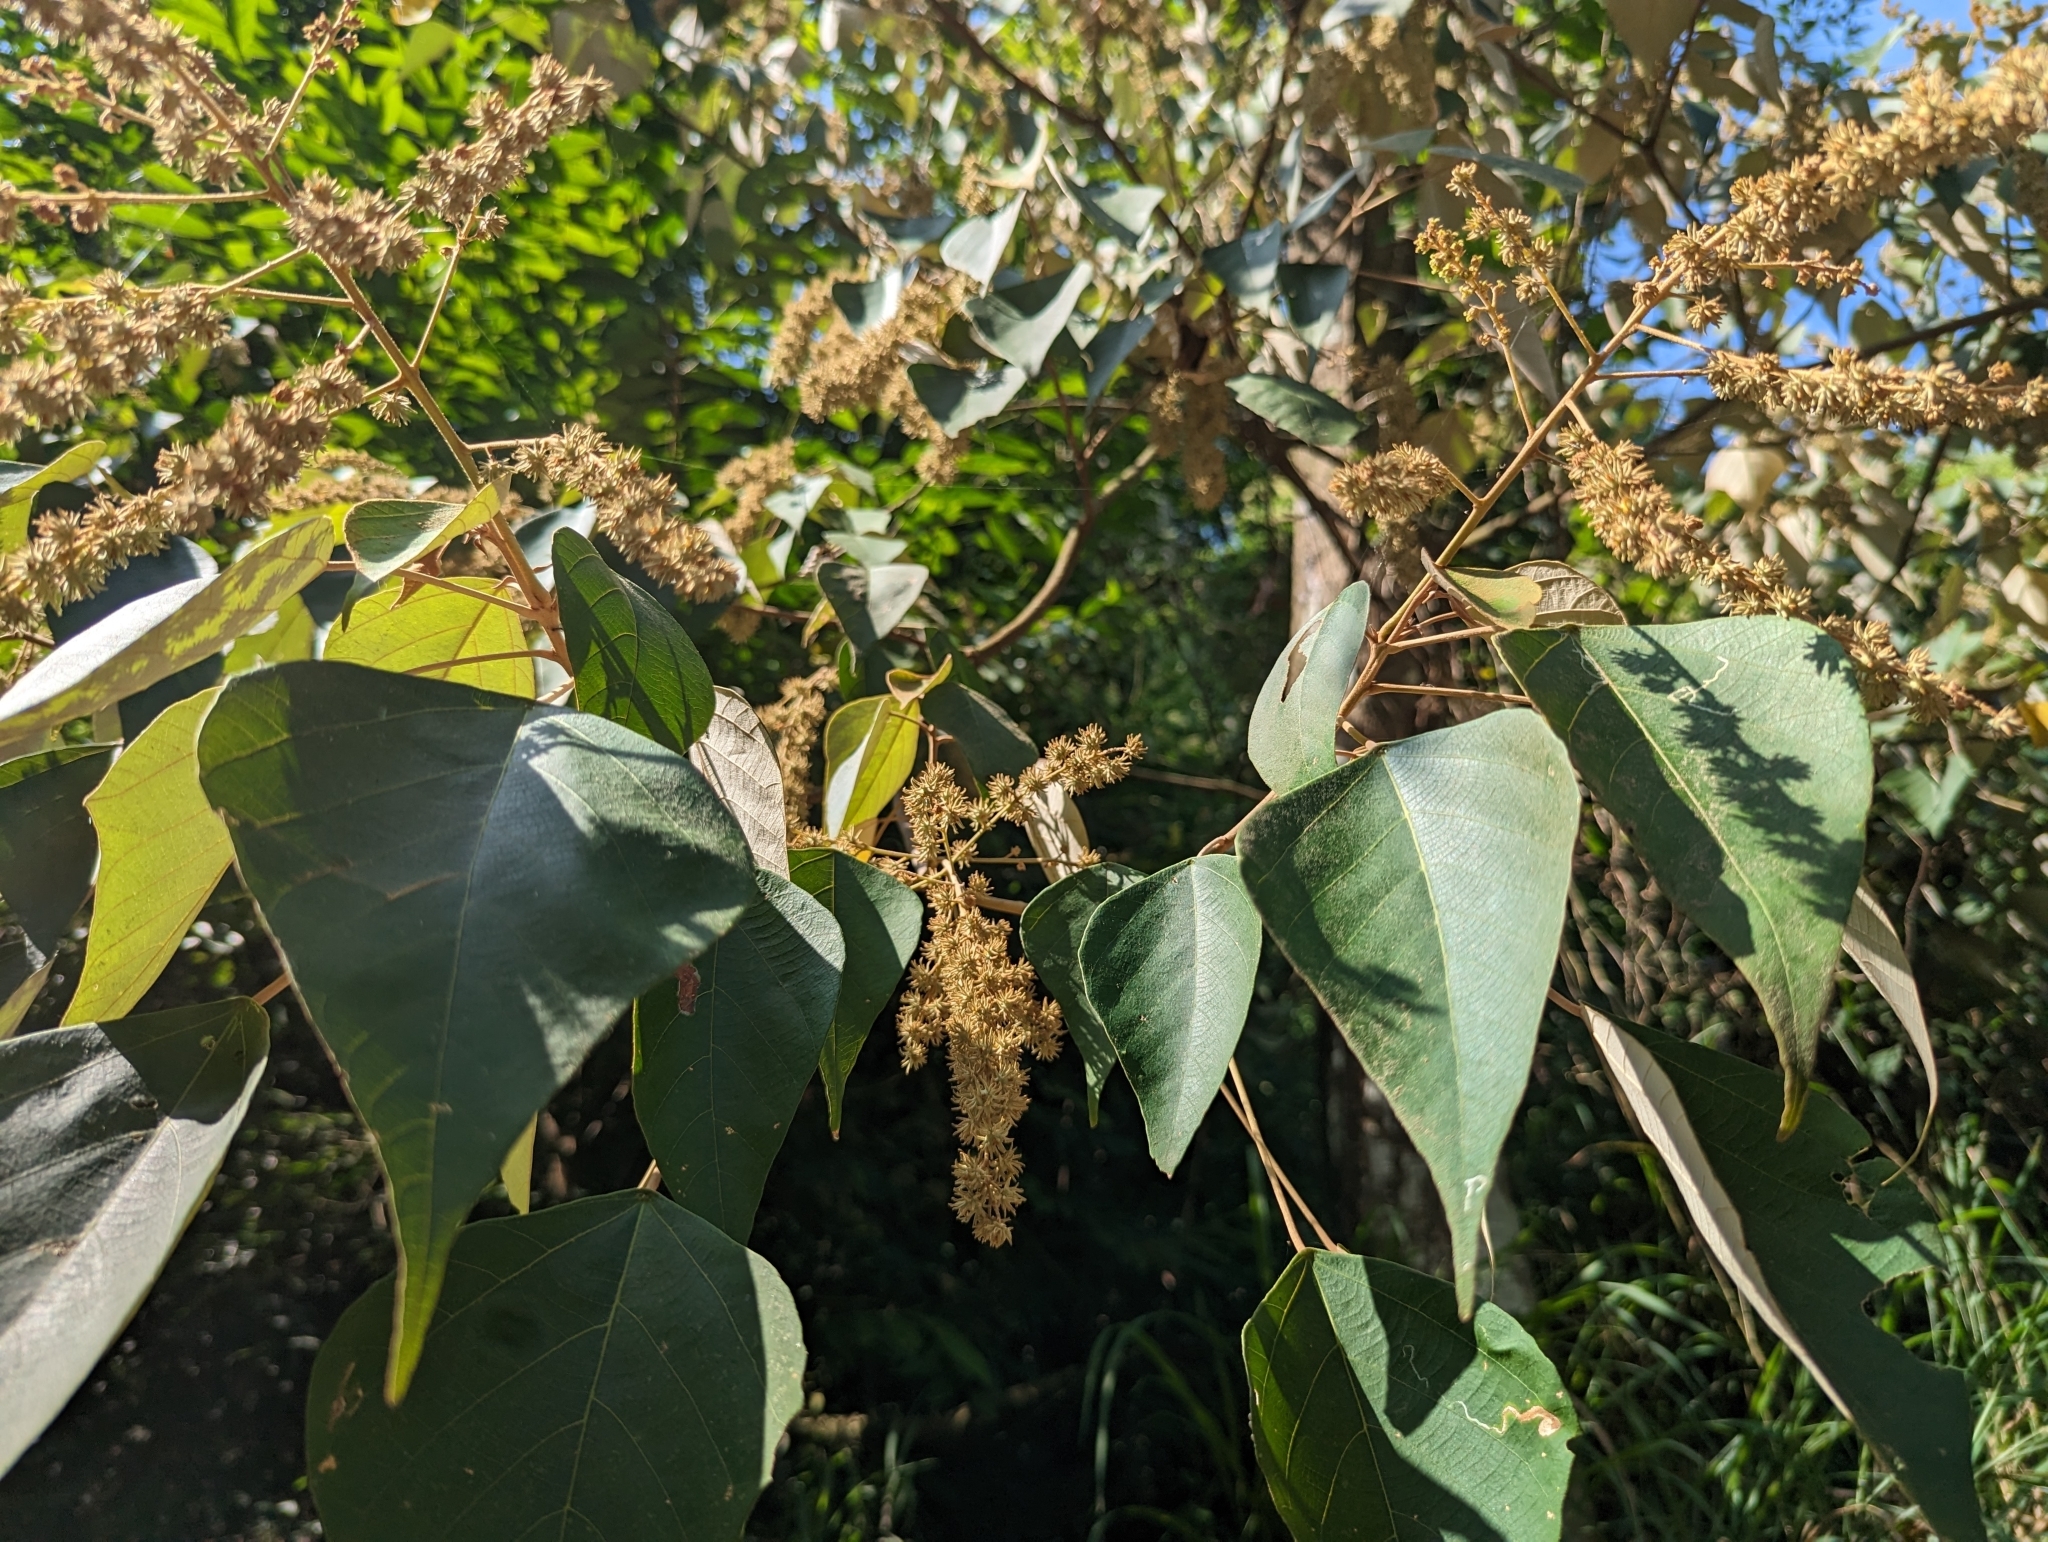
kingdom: Plantae
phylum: Tracheophyta
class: Magnoliopsida
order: Malpighiales
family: Euphorbiaceae
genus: Mallotus
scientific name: Mallotus paniculatus
